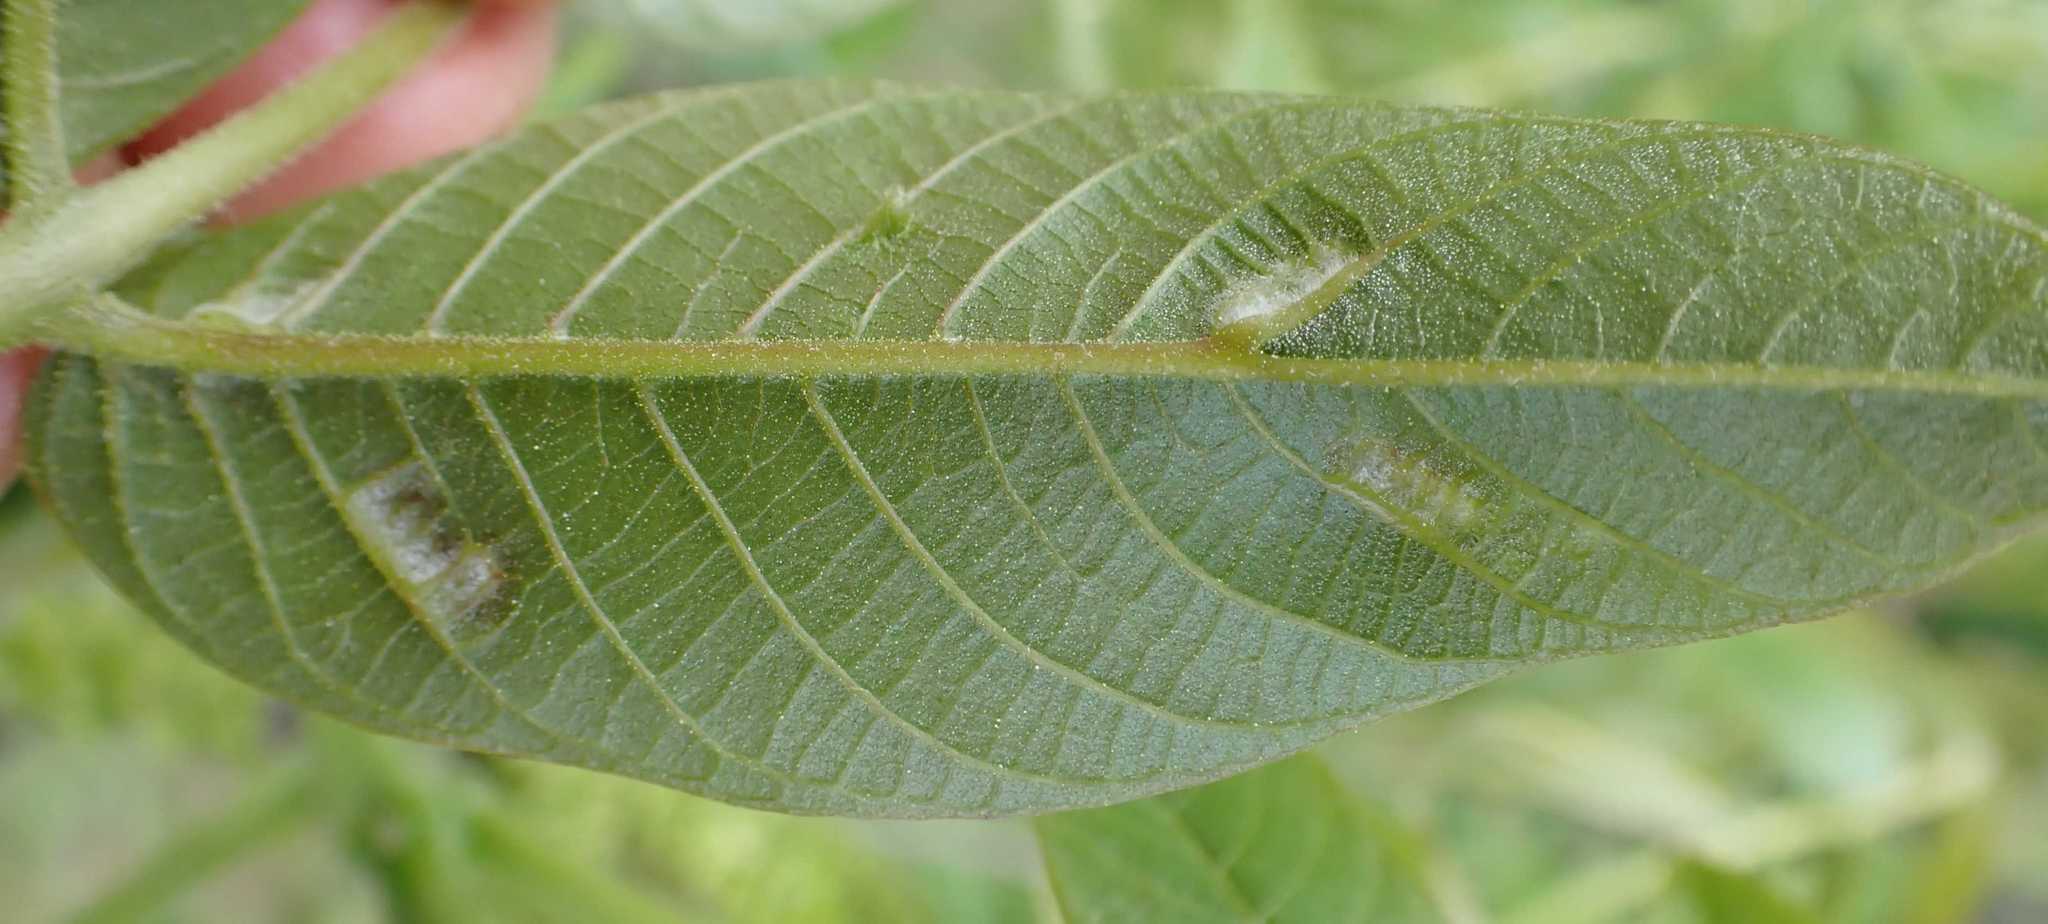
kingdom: Animalia
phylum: Arthropoda
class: Arachnida
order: Trombidiformes
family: Eriophyidae
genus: Aceria
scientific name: Aceria erinea
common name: Persian walnut erineum mite
